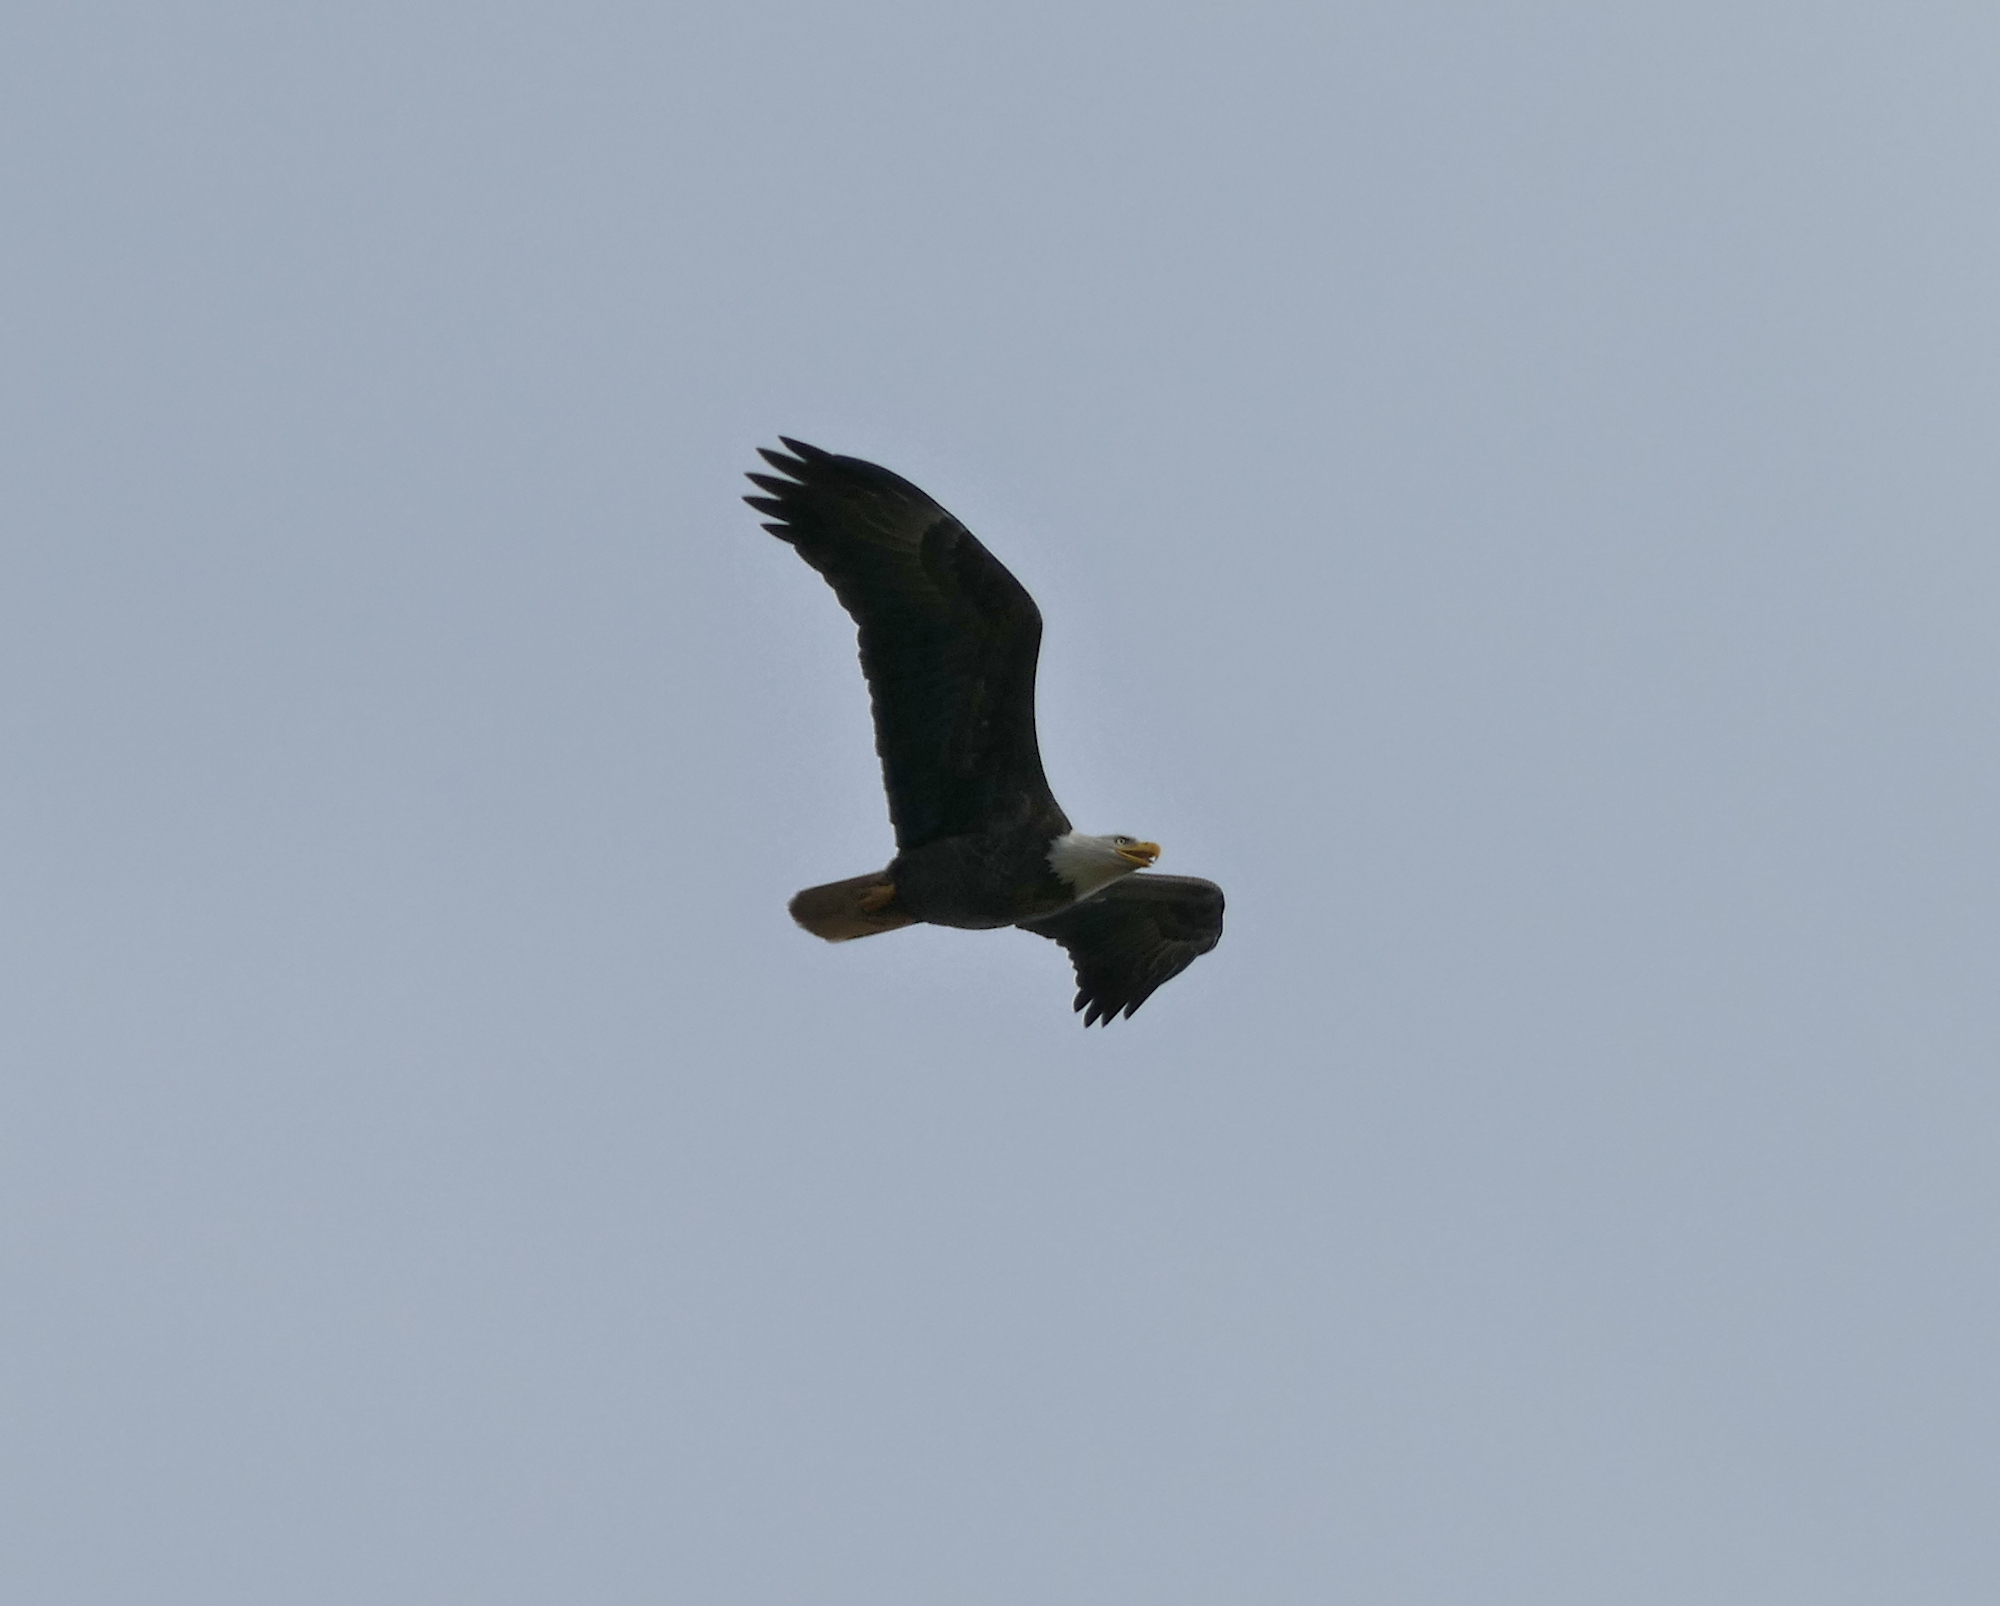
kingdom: Animalia
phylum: Chordata
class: Aves
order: Accipitriformes
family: Accipitridae
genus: Haliaeetus
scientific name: Haliaeetus leucocephalus
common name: Bald eagle
